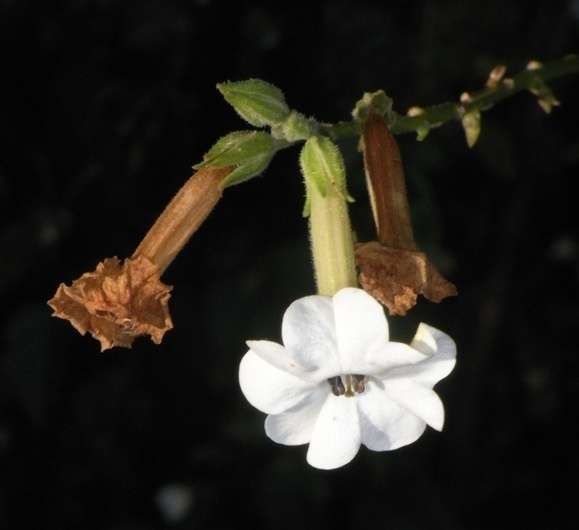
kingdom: Plantae
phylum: Tracheophyta
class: Magnoliopsida
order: Solanales
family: Solanaceae
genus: Nicotiana
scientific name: Nicotiana suaveolens
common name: Australian tobacco
